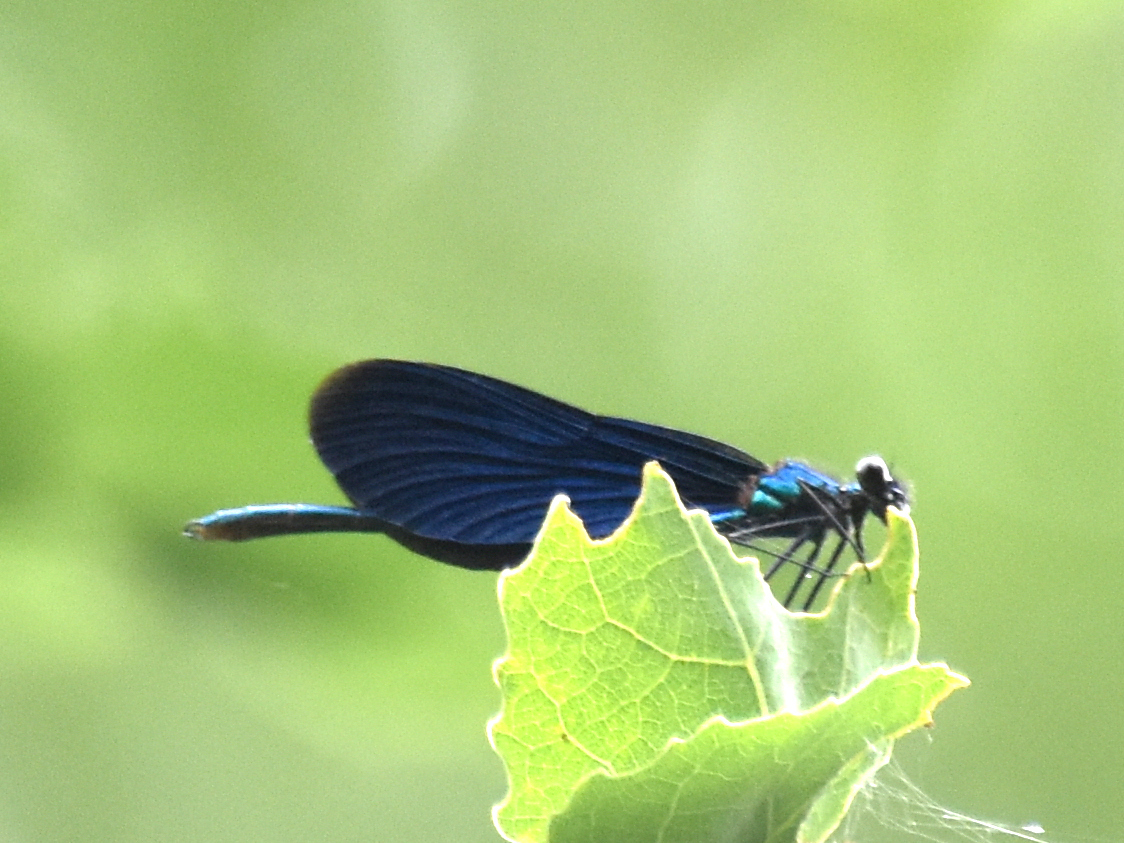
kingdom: Animalia
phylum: Arthropoda
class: Insecta
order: Odonata
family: Calopterygidae
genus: Calopteryx
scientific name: Calopteryx virgo
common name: Beautiful demoiselle
